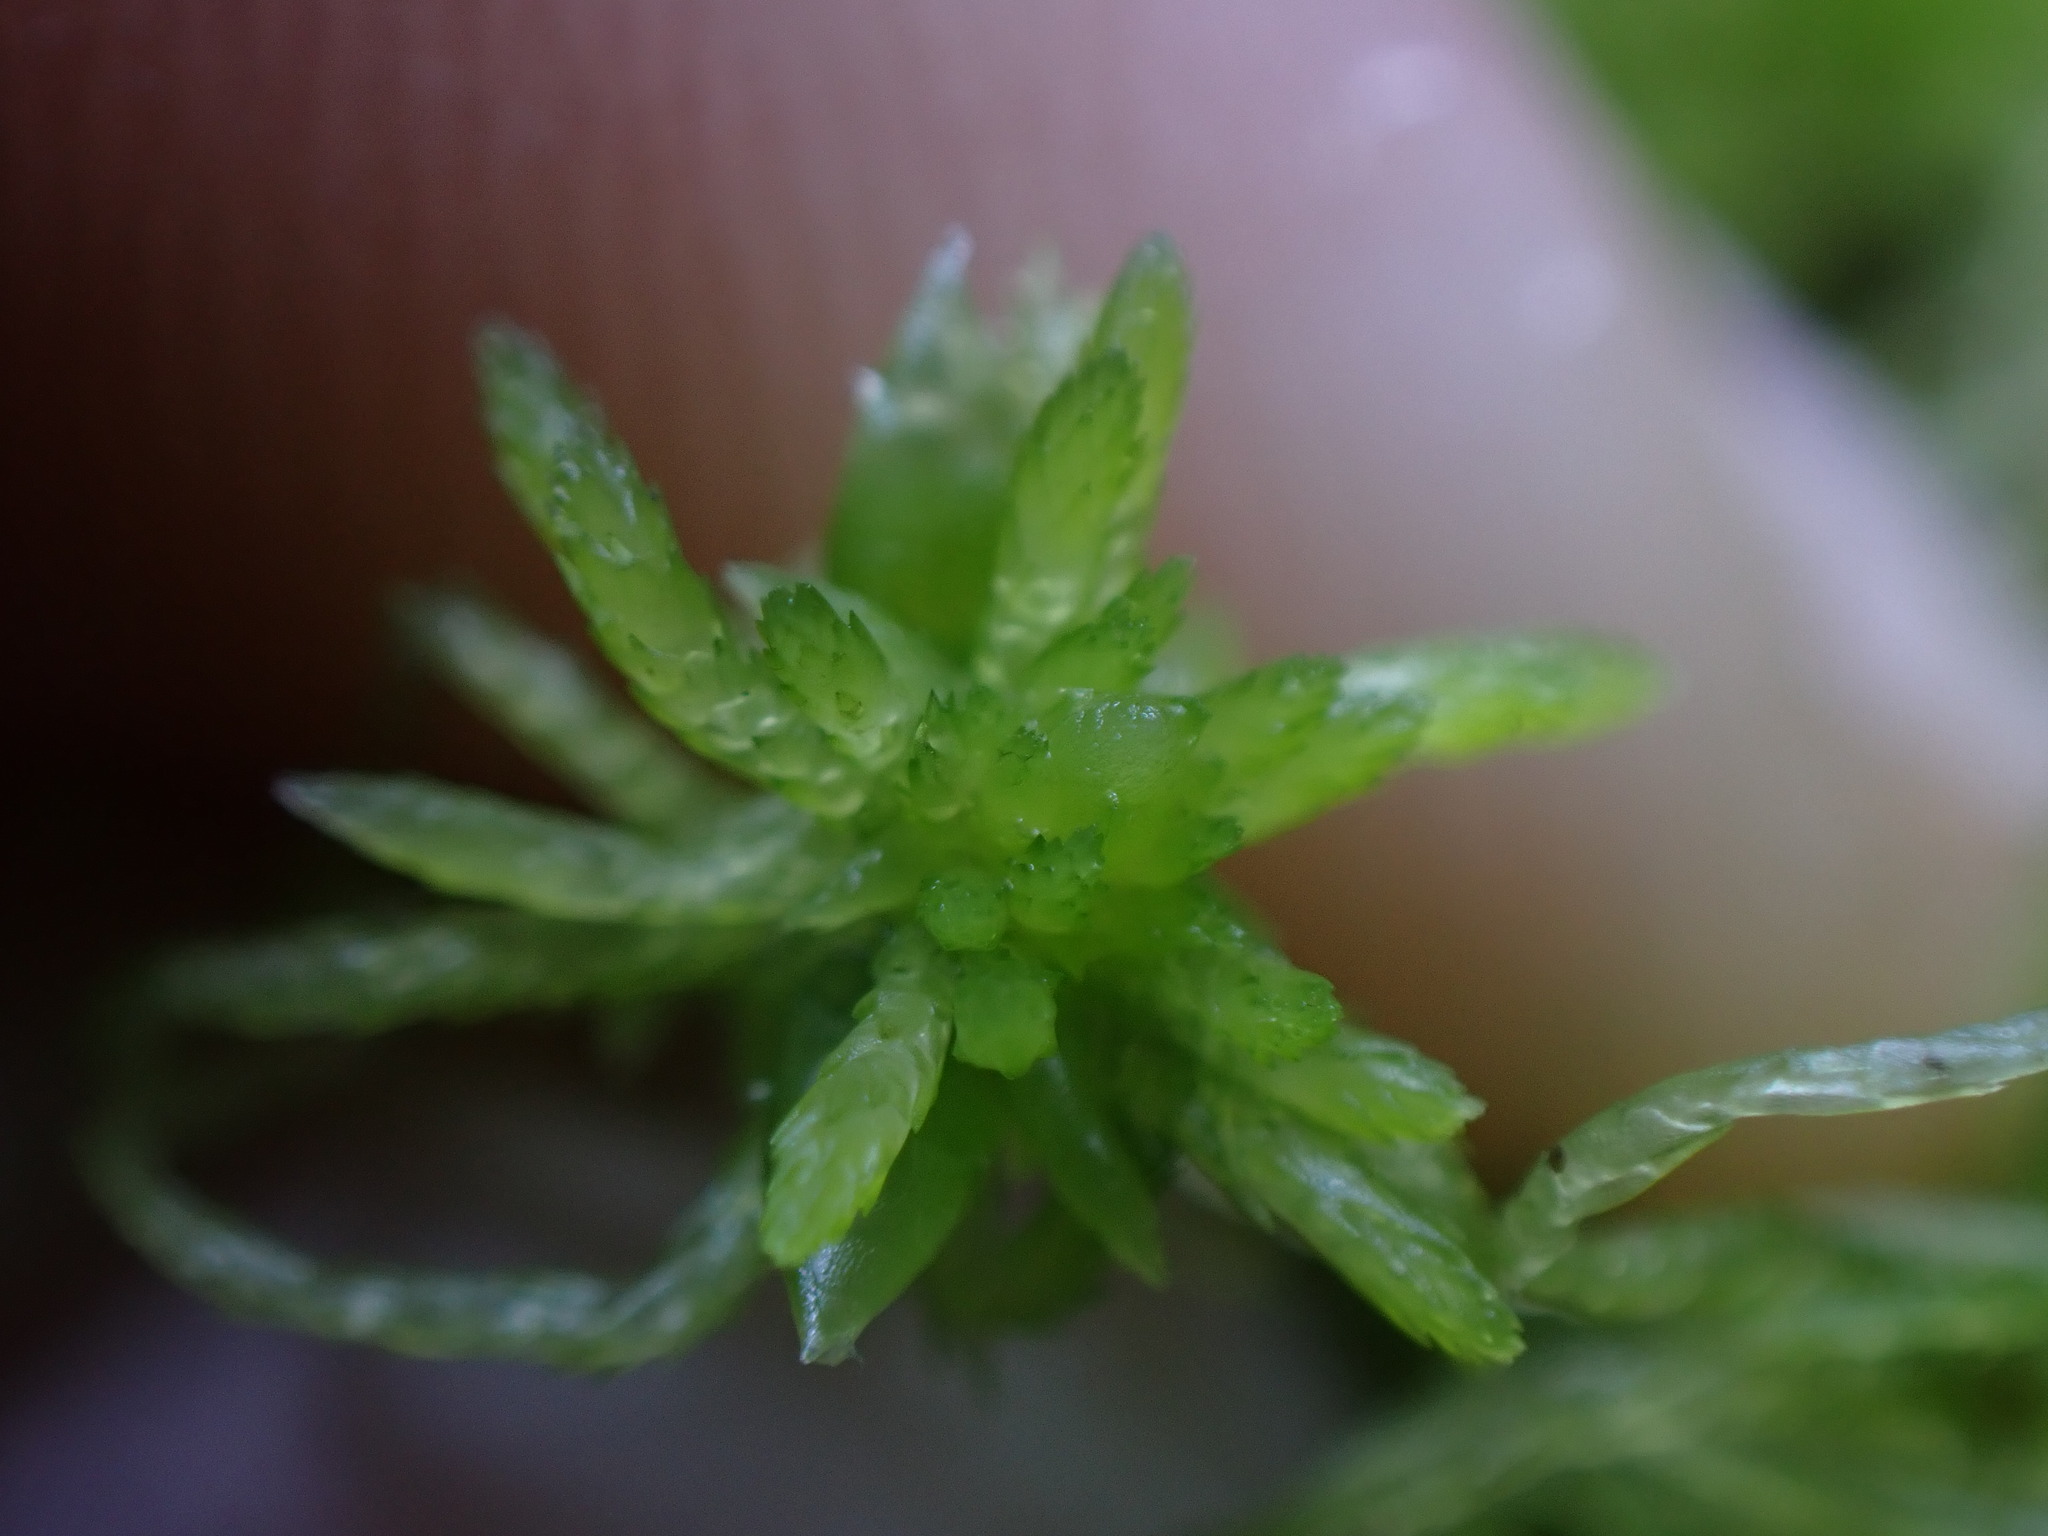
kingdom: Plantae
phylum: Bryophyta
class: Sphagnopsida
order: Sphagnales
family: Sphagnaceae
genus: Sphagnum
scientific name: Sphagnum fimbriatum
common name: Fringed peat moss
